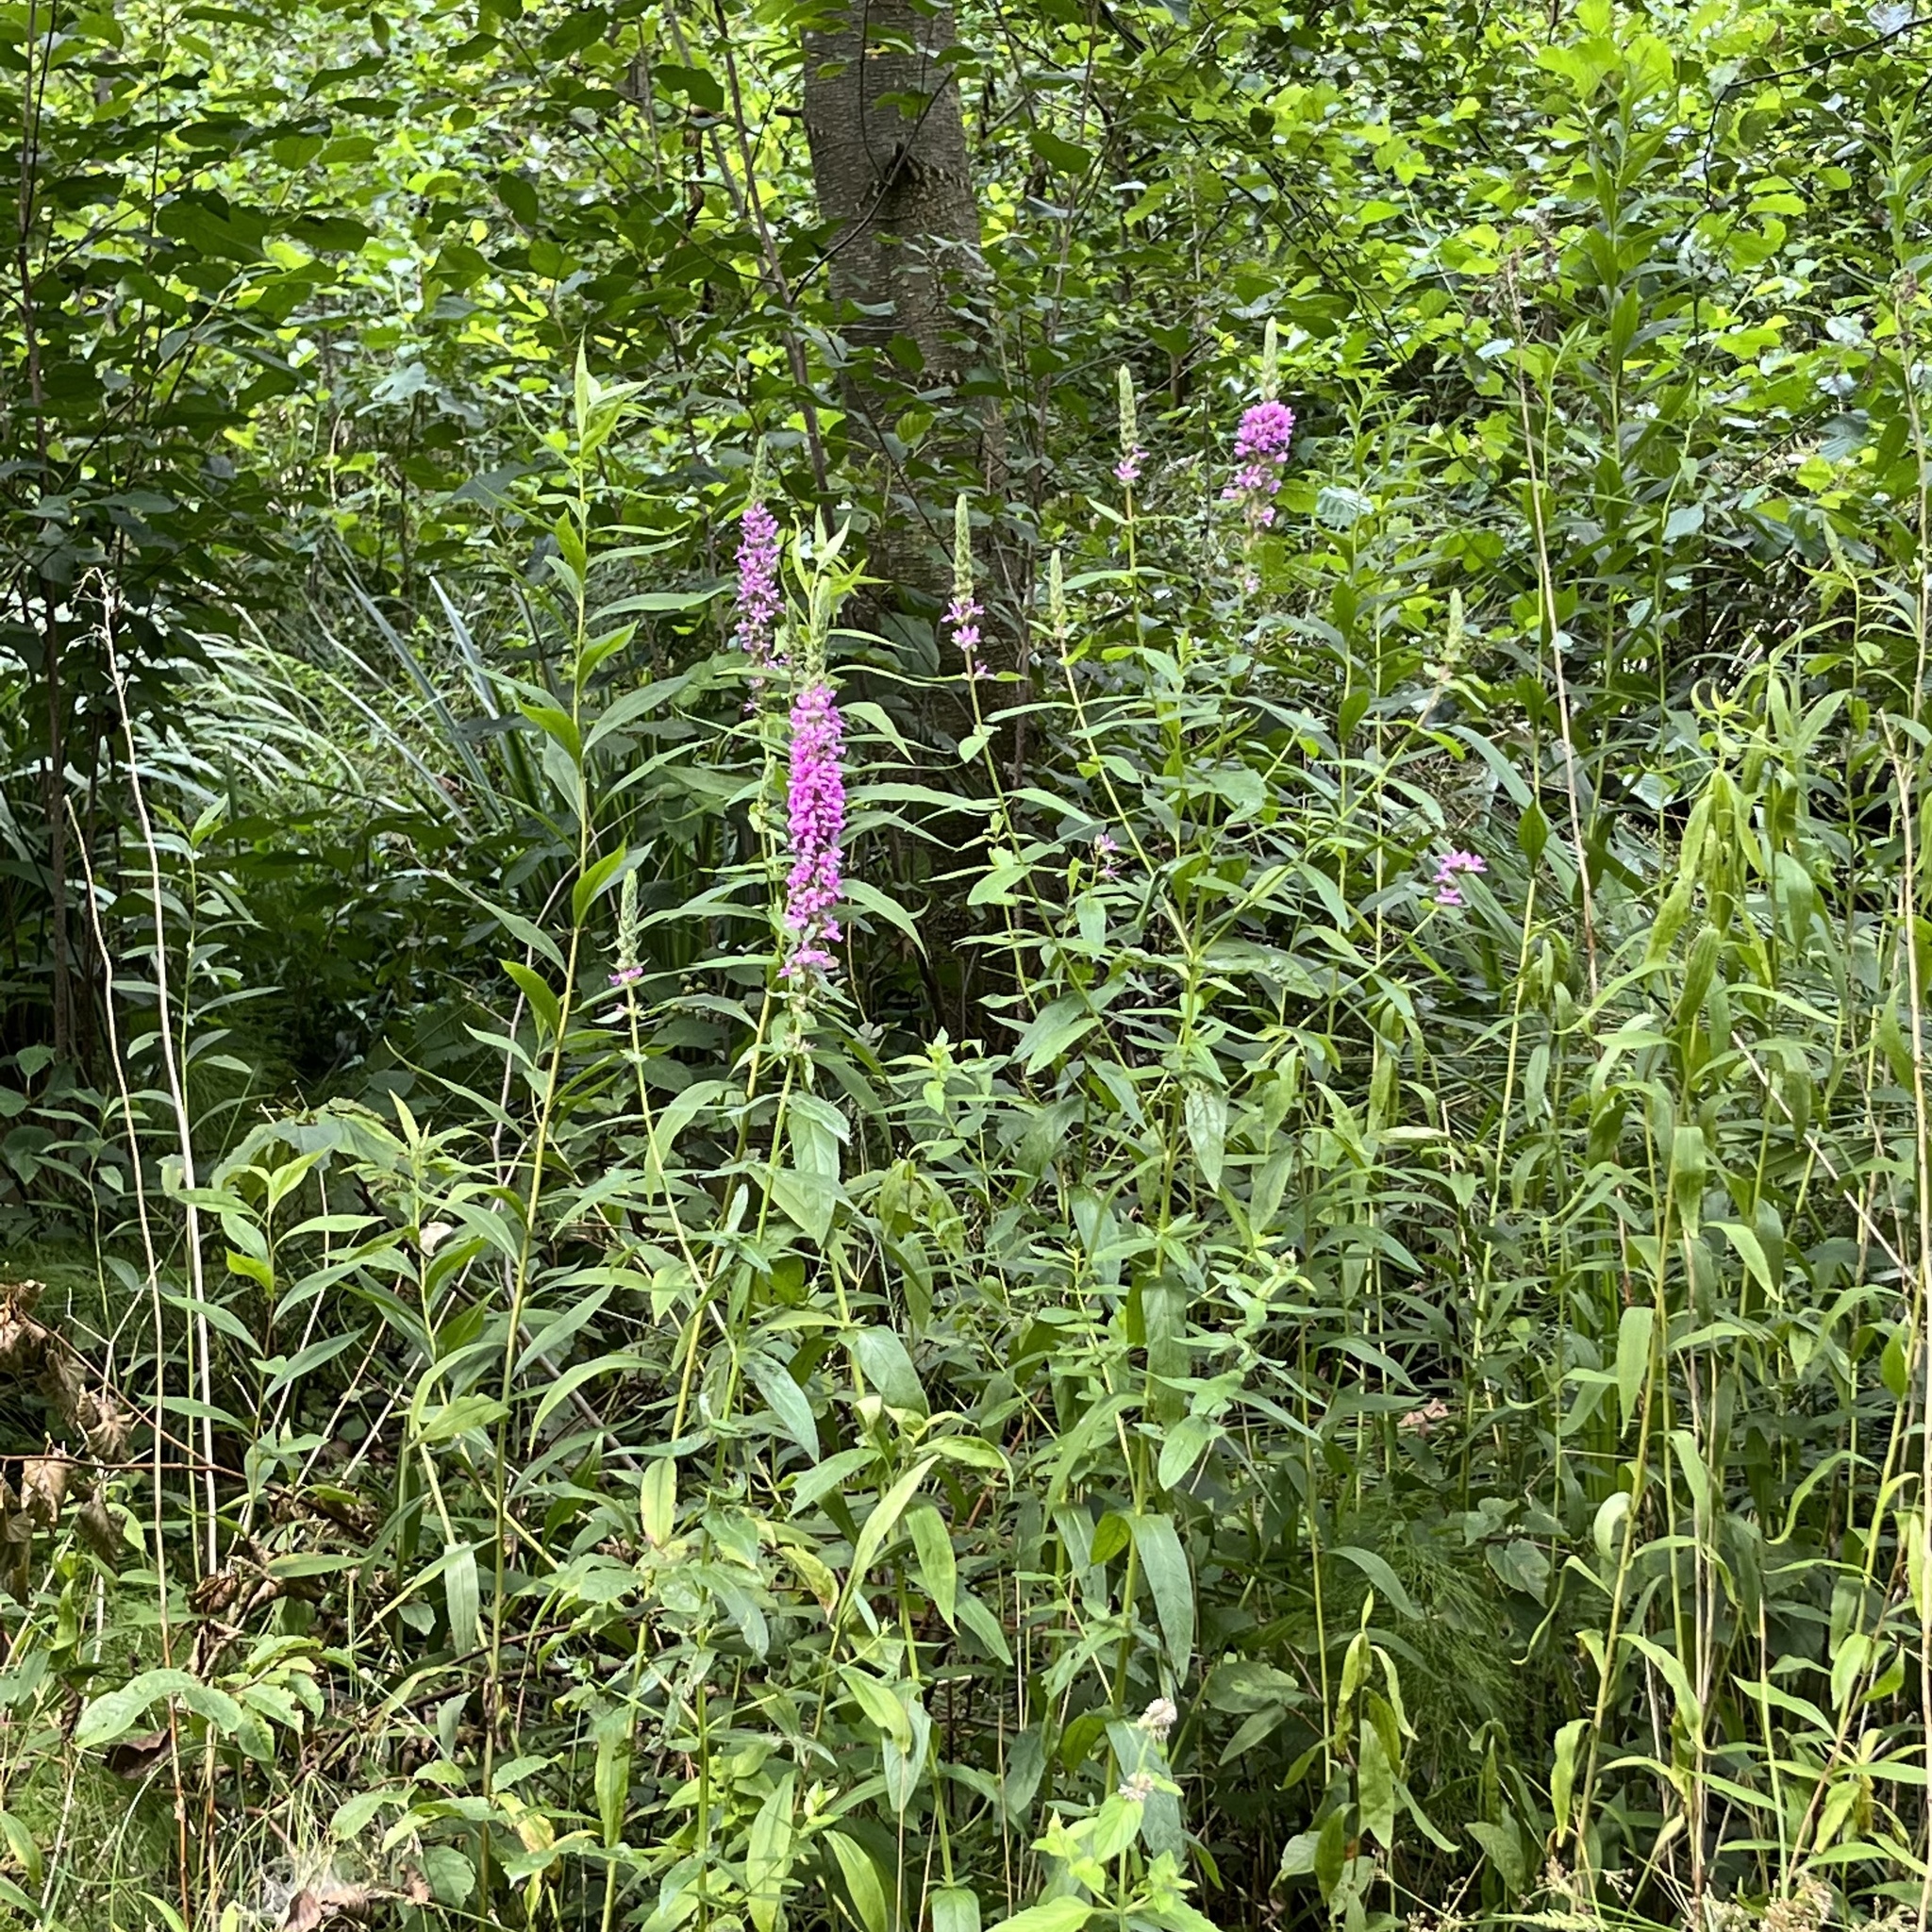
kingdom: Plantae
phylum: Tracheophyta
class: Magnoliopsida
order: Myrtales
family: Lythraceae
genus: Lythrum
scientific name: Lythrum salicaria
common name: Purple loosestrife
